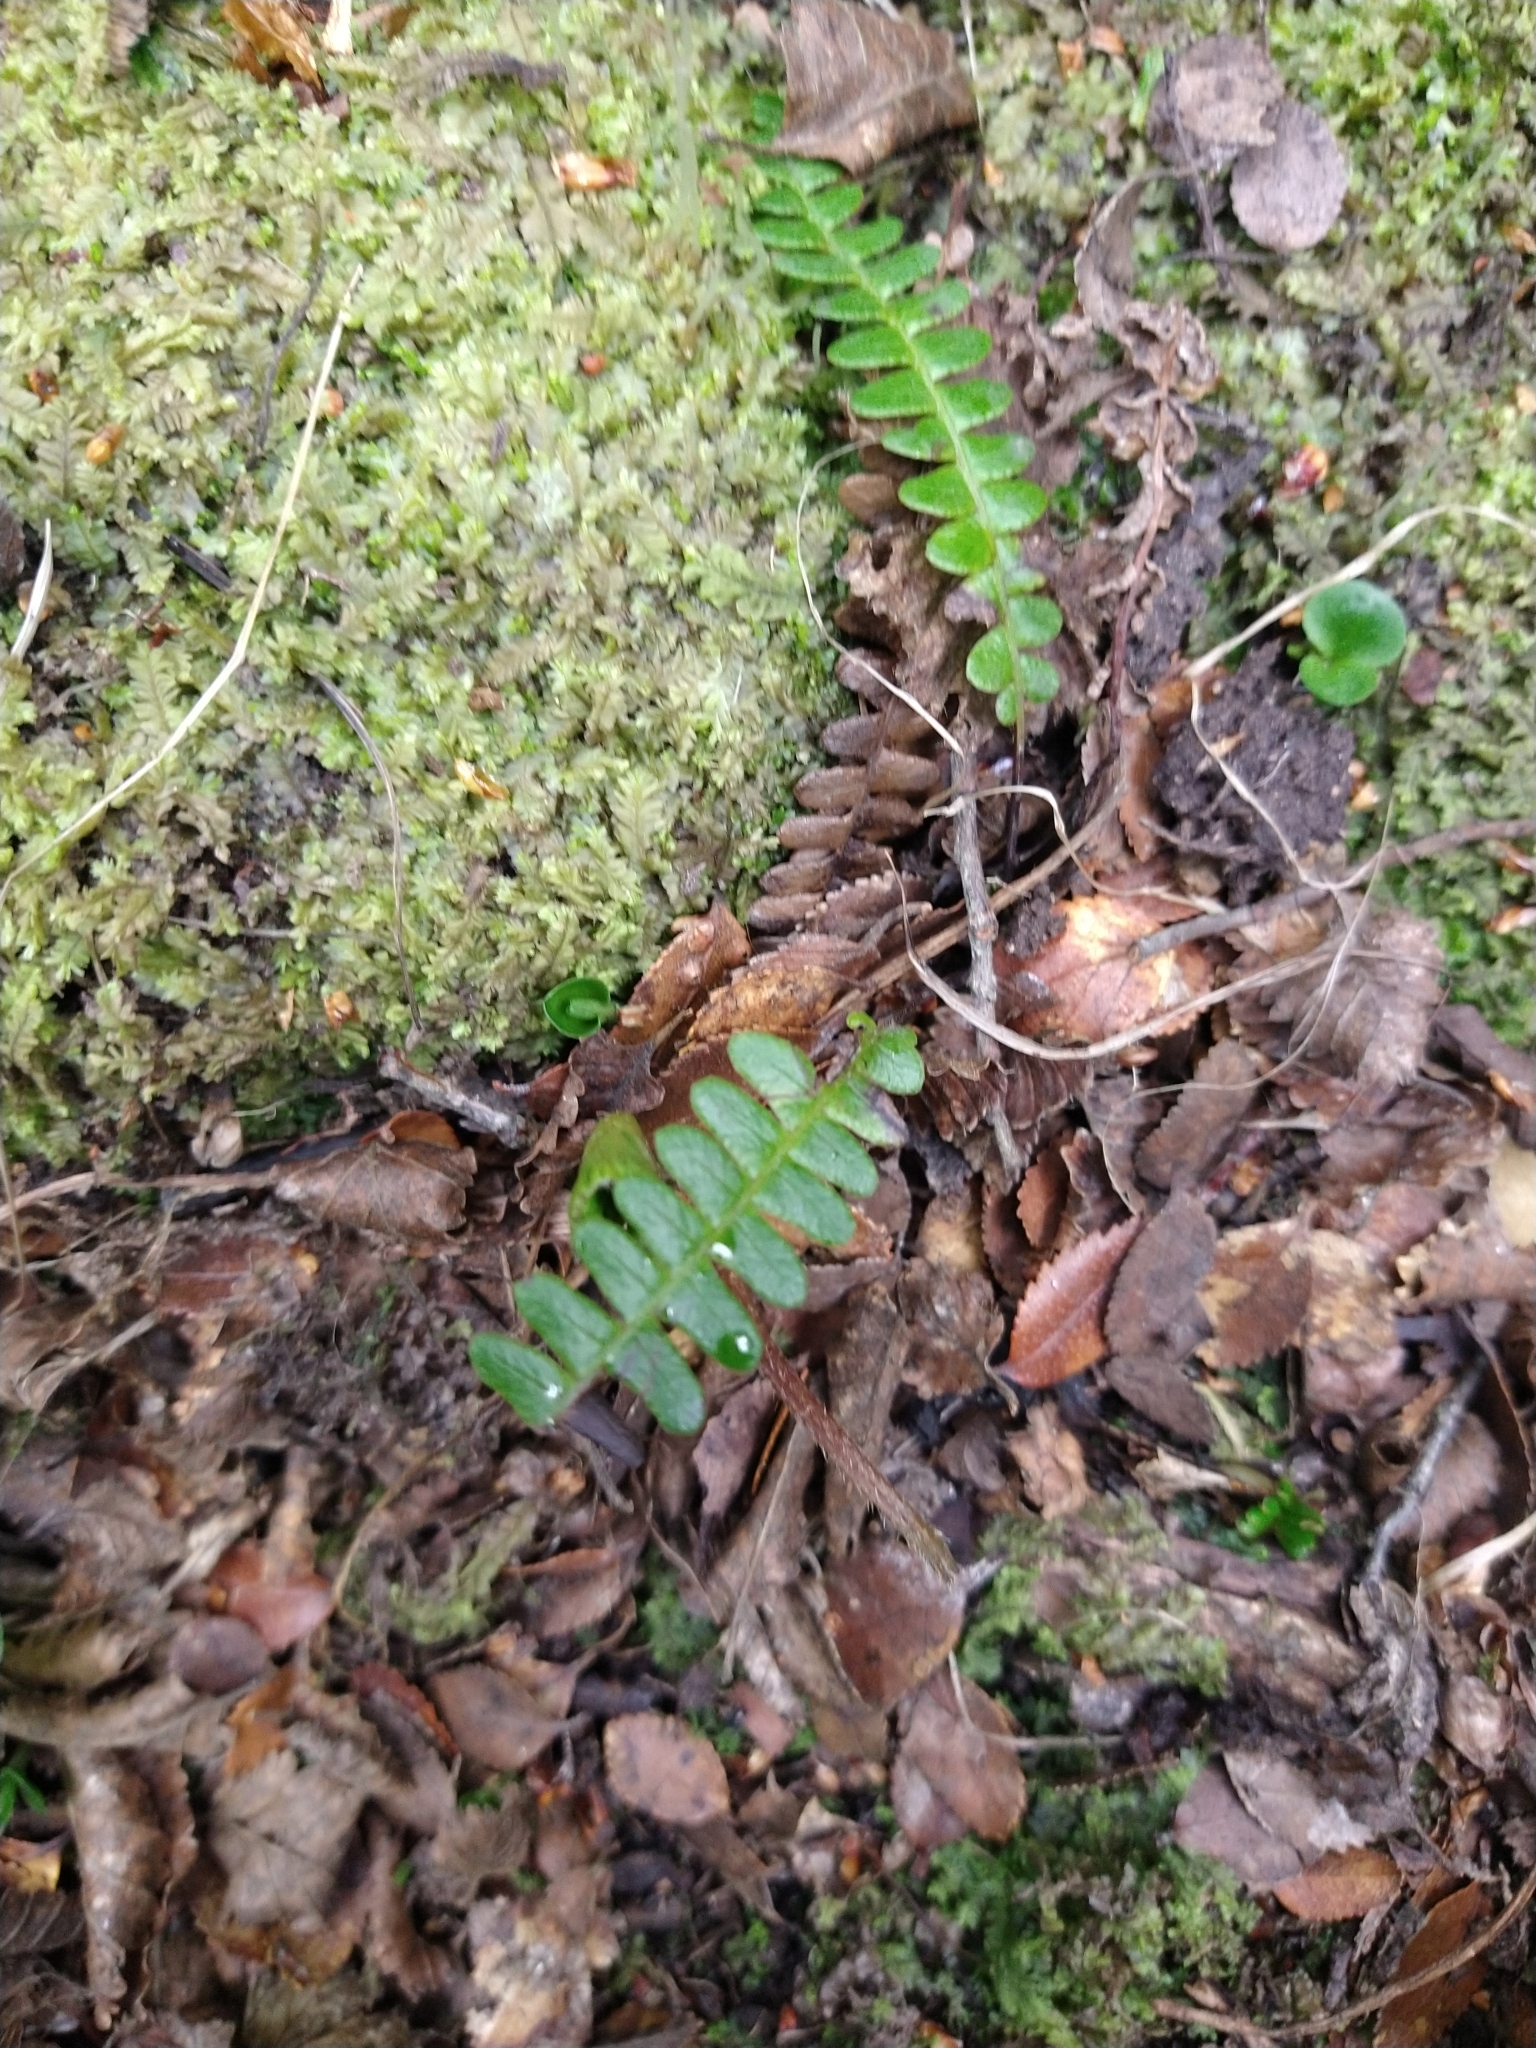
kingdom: Plantae
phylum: Tracheophyta
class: Polypodiopsida
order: Polypodiales
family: Blechnaceae
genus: Austroblechnum
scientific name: Austroblechnum penna-marina
